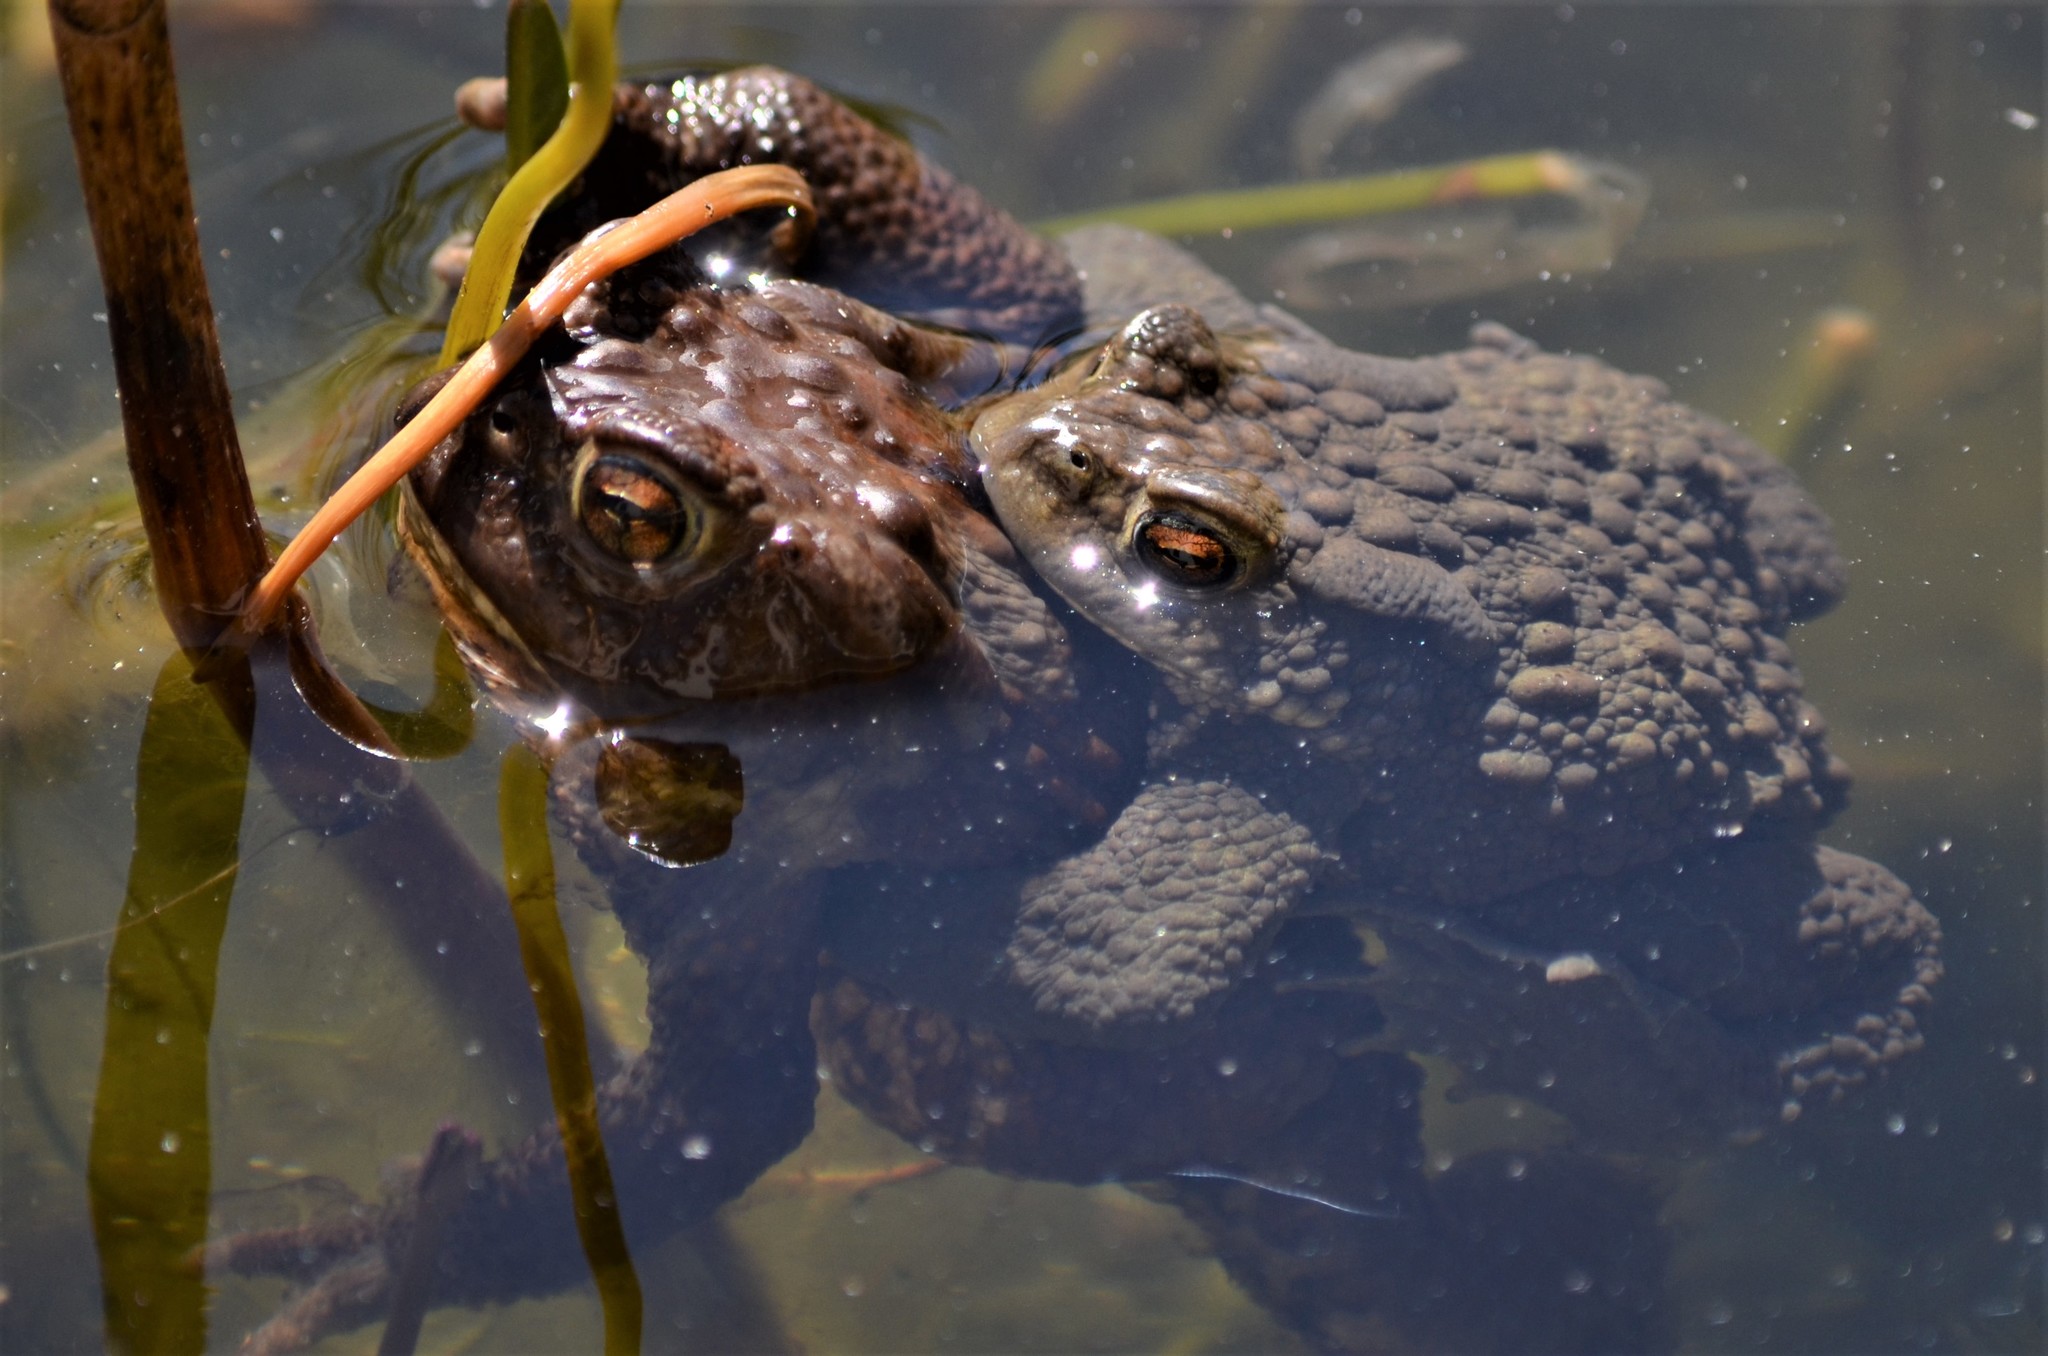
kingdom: Animalia
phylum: Chordata
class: Amphibia
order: Anura
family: Bufonidae
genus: Bufo
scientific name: Bufo bufo
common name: Common toad
